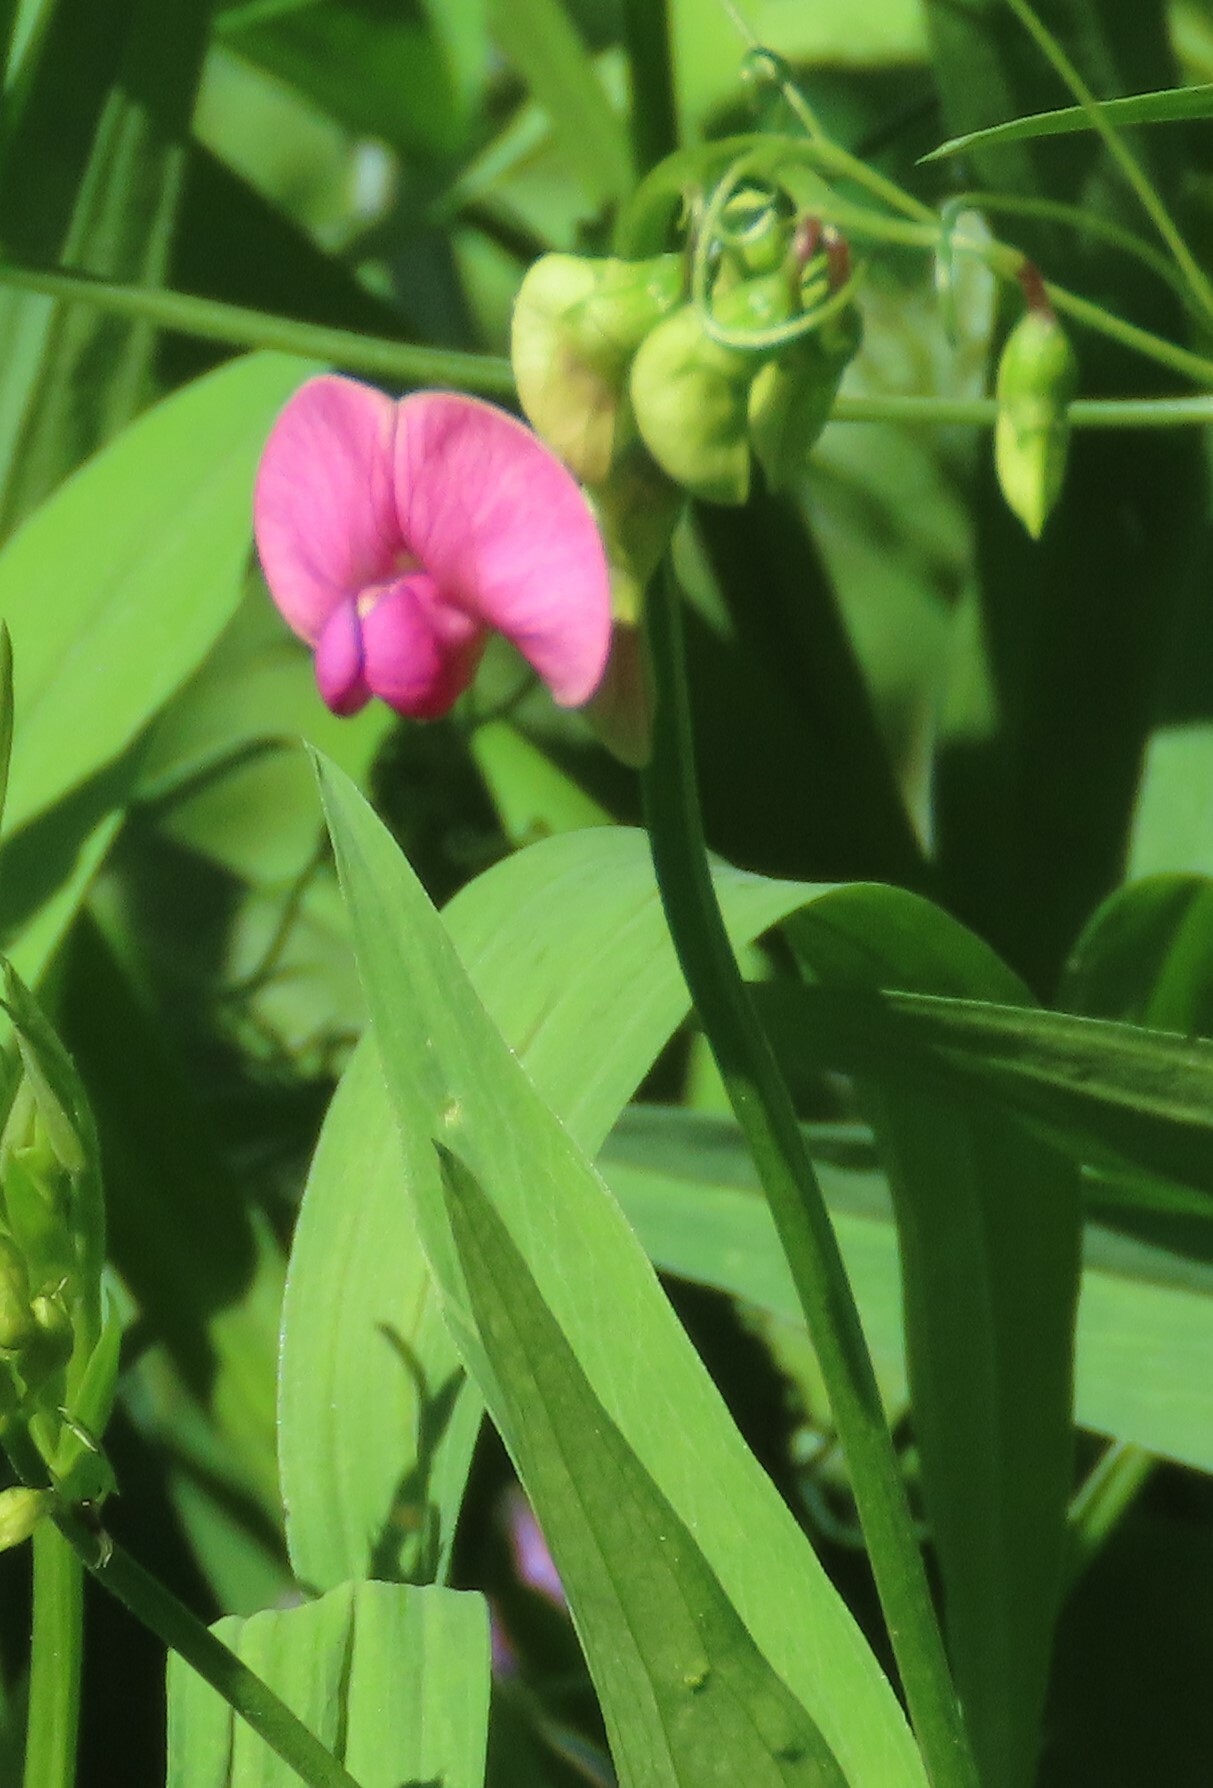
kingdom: Plantae
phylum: Tracheophyta
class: Magnoliopsida
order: Fabales
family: Fabaceae
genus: Lathyrus
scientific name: Lathyrus sylvestris
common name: Flat pea
